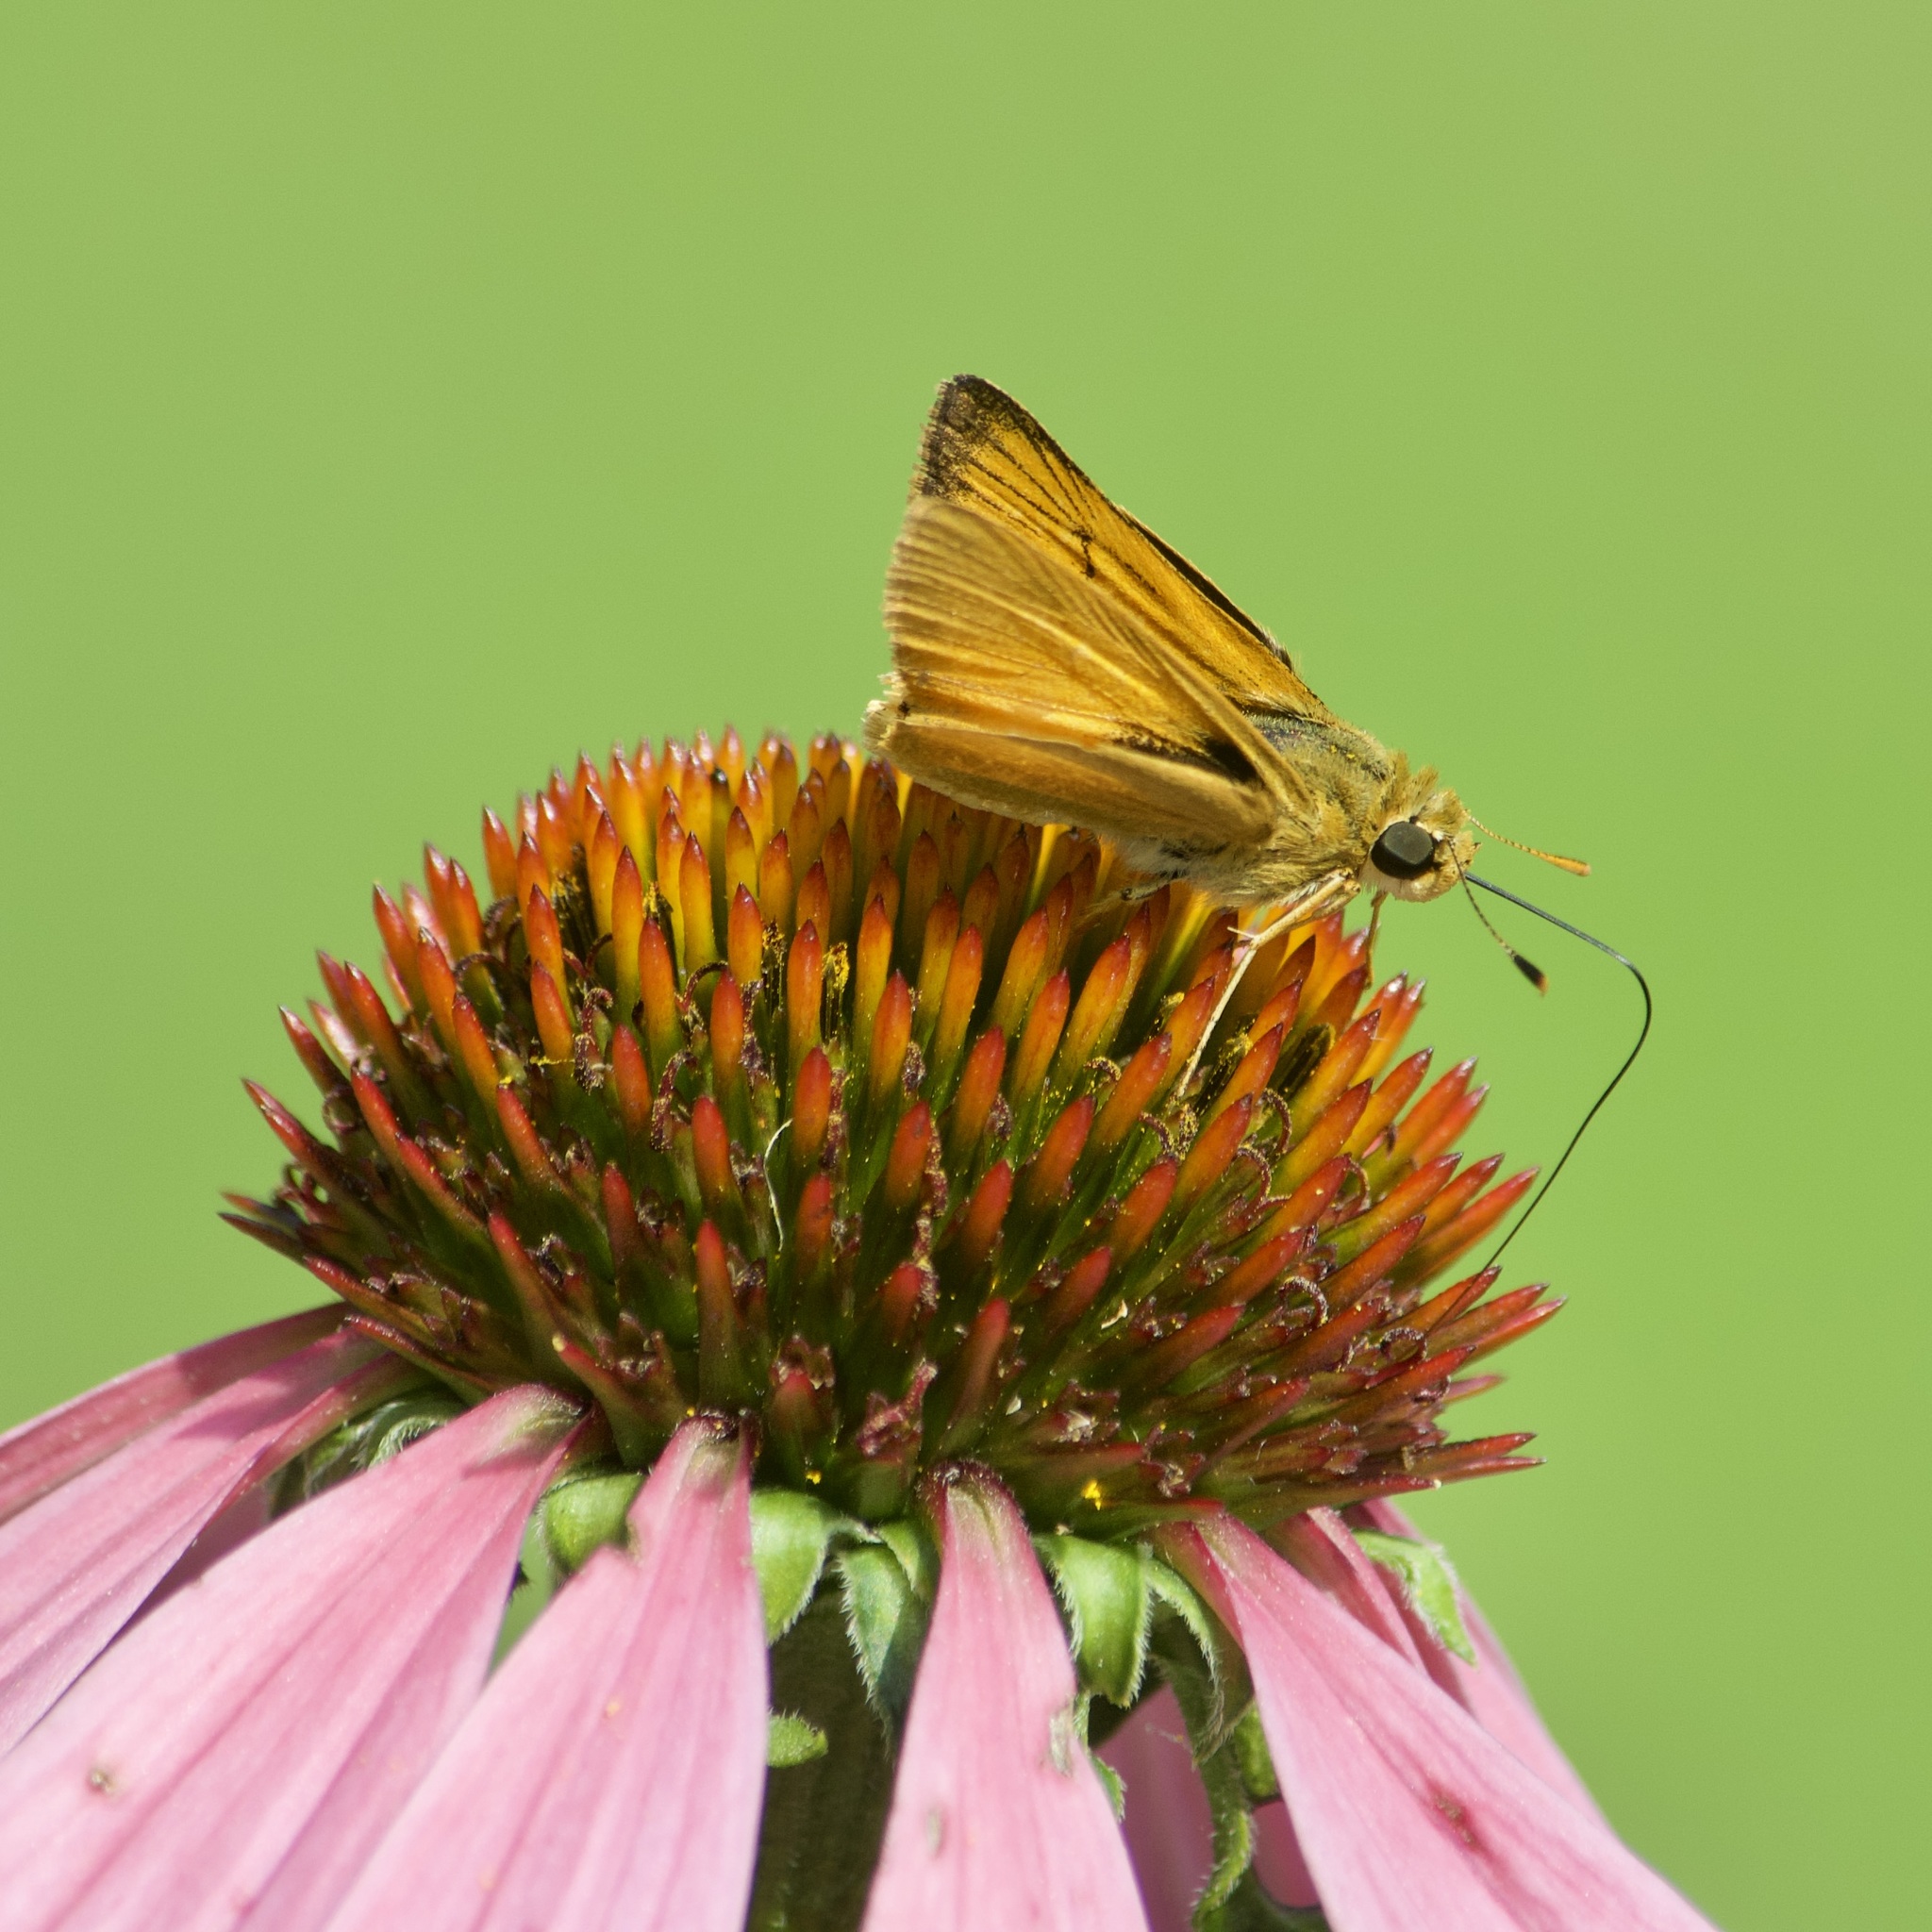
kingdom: Animalia
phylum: Arthropoda
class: Insecta
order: Lepidoptera
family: Hesperiidae
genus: Atrytone
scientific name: Atrytone delaware
